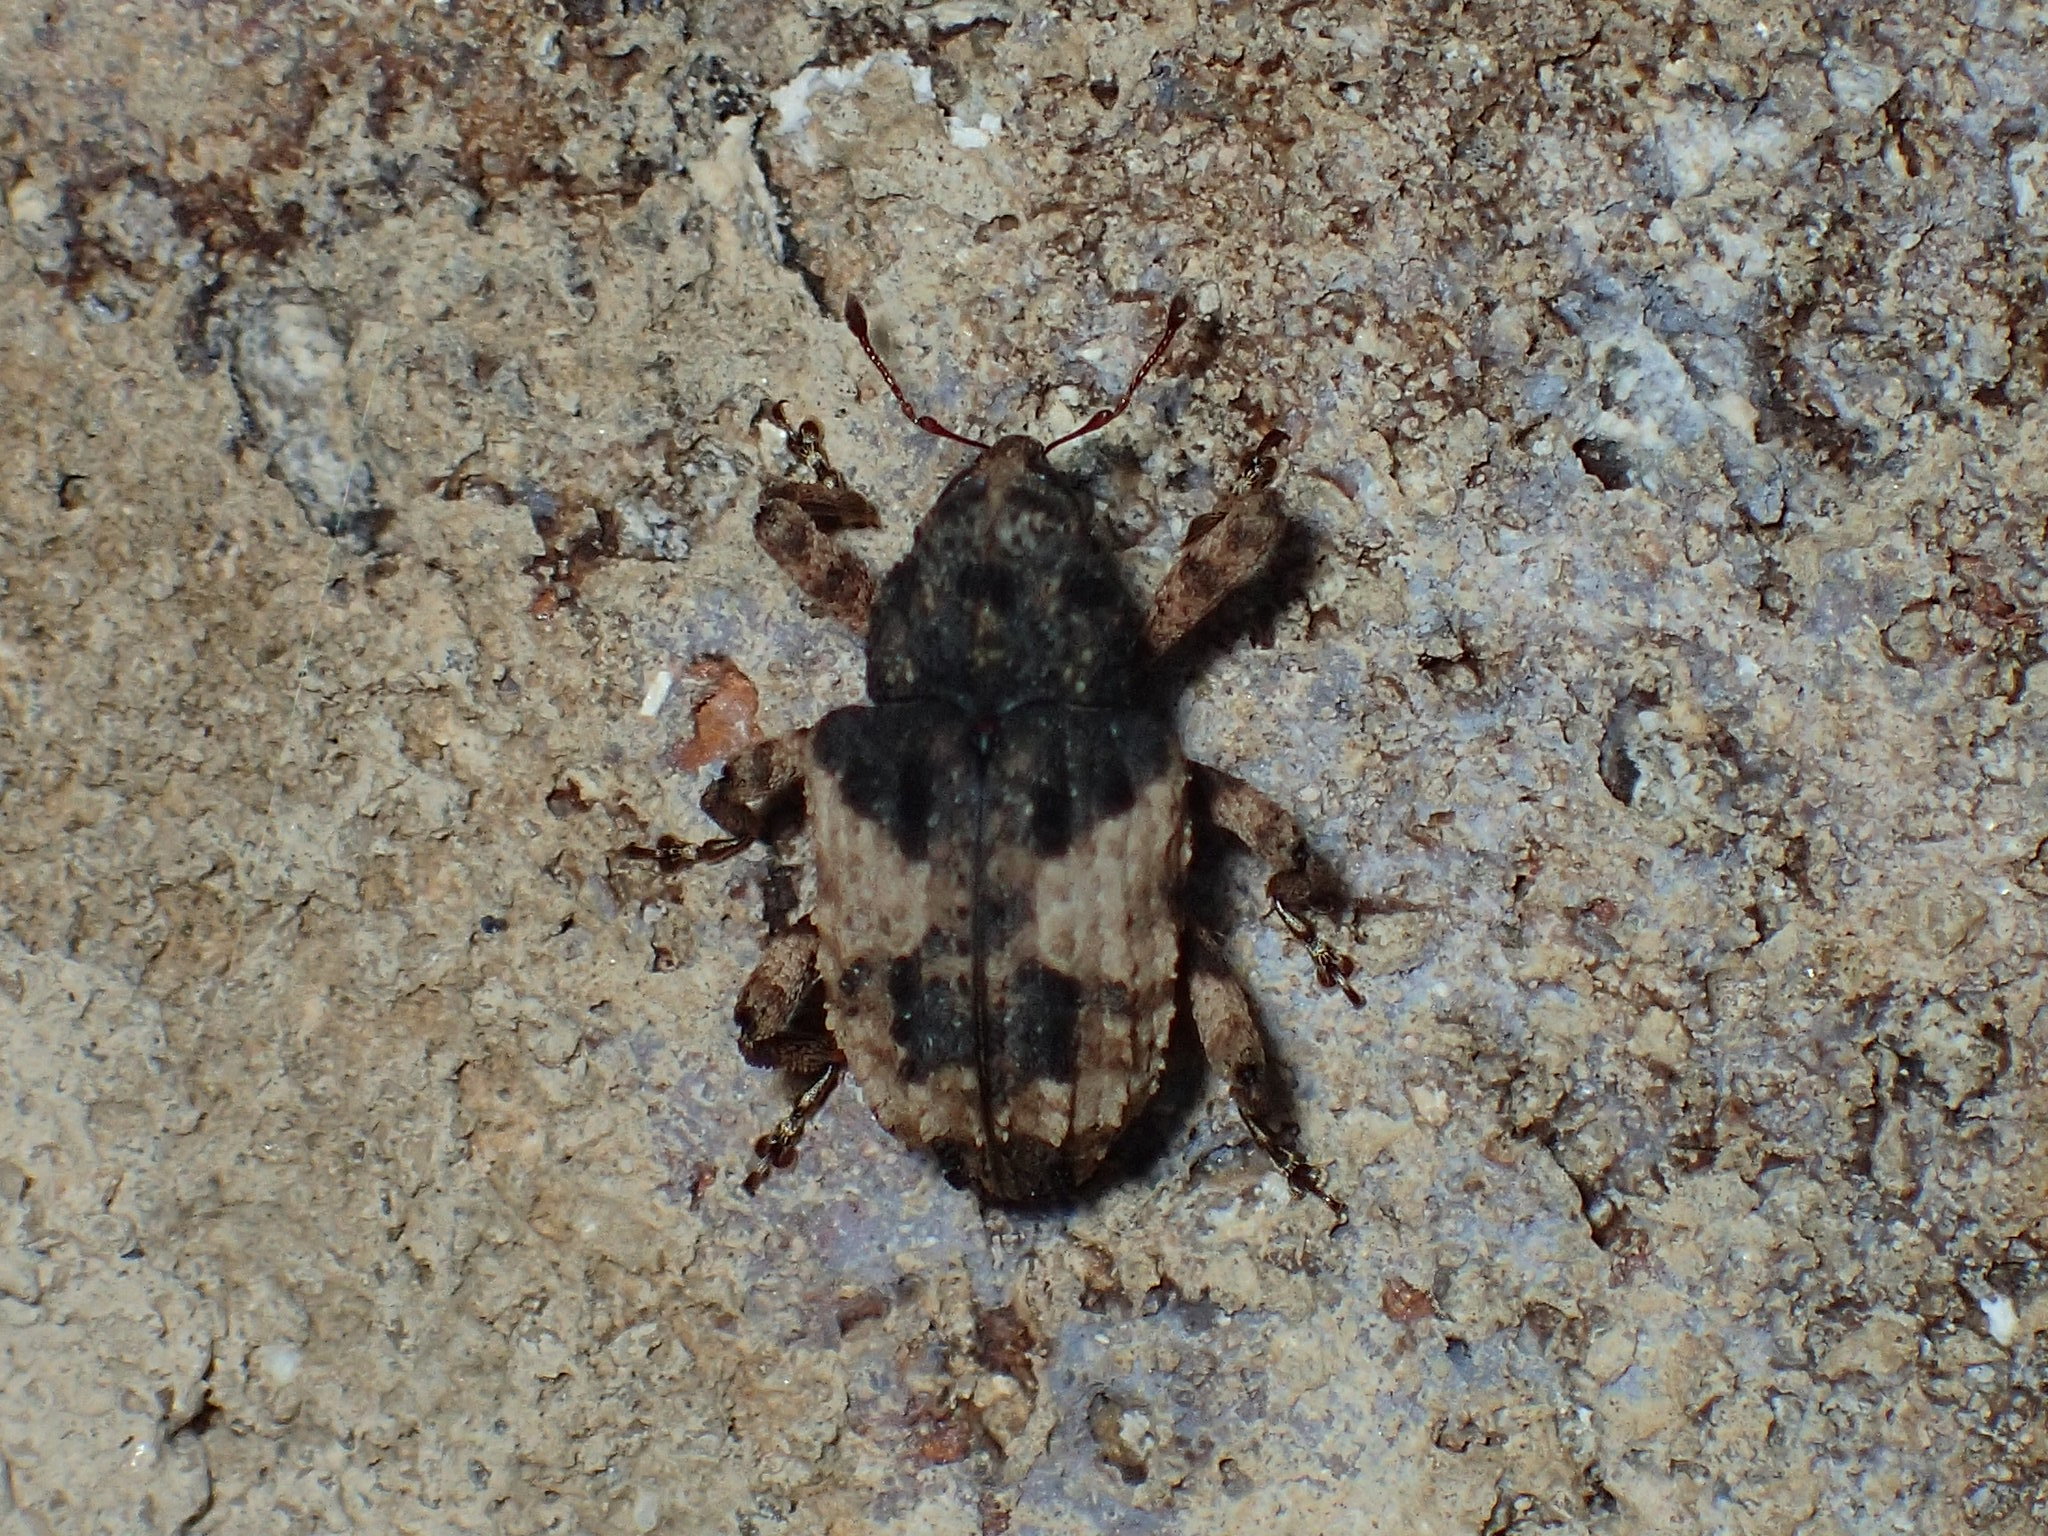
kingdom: Animalia
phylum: Arthropoda
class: Insecta
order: Coleoptera
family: Curculionidae
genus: Cryptorhynchus
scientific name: Cryptorhynchus fuscatus
